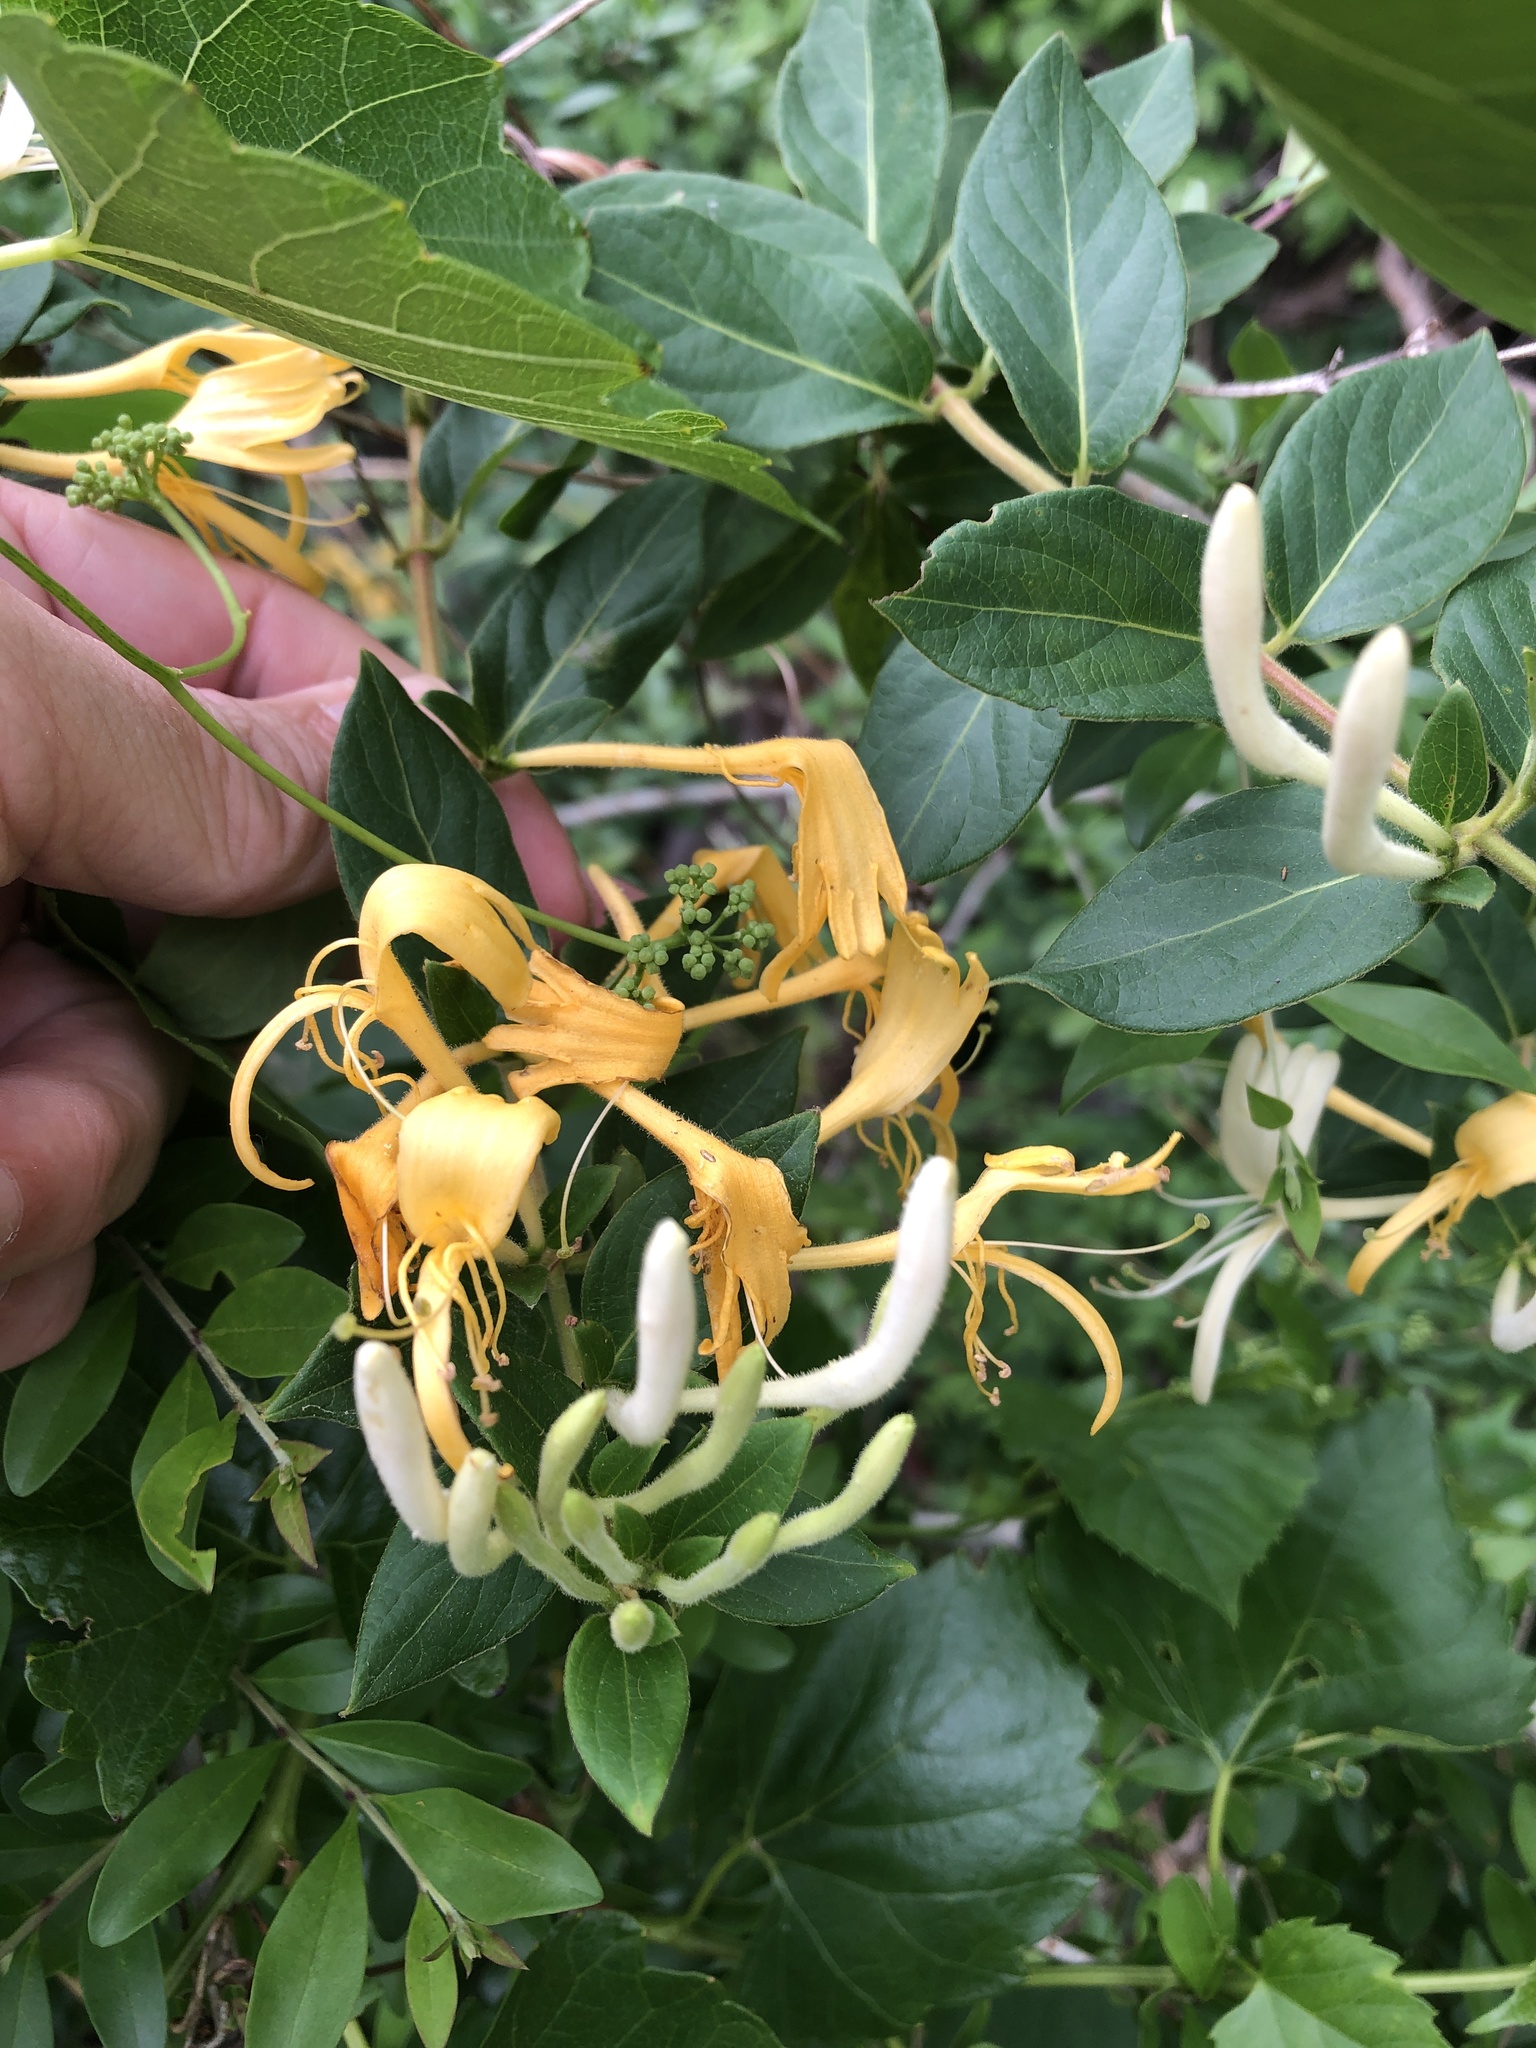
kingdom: Plantae
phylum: Tracheophyta
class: Magnoliopsida
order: Dipsacales
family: Caprifoliaceae
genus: Lonicera
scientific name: Lonicera japonica
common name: Japanese honeysuckle
